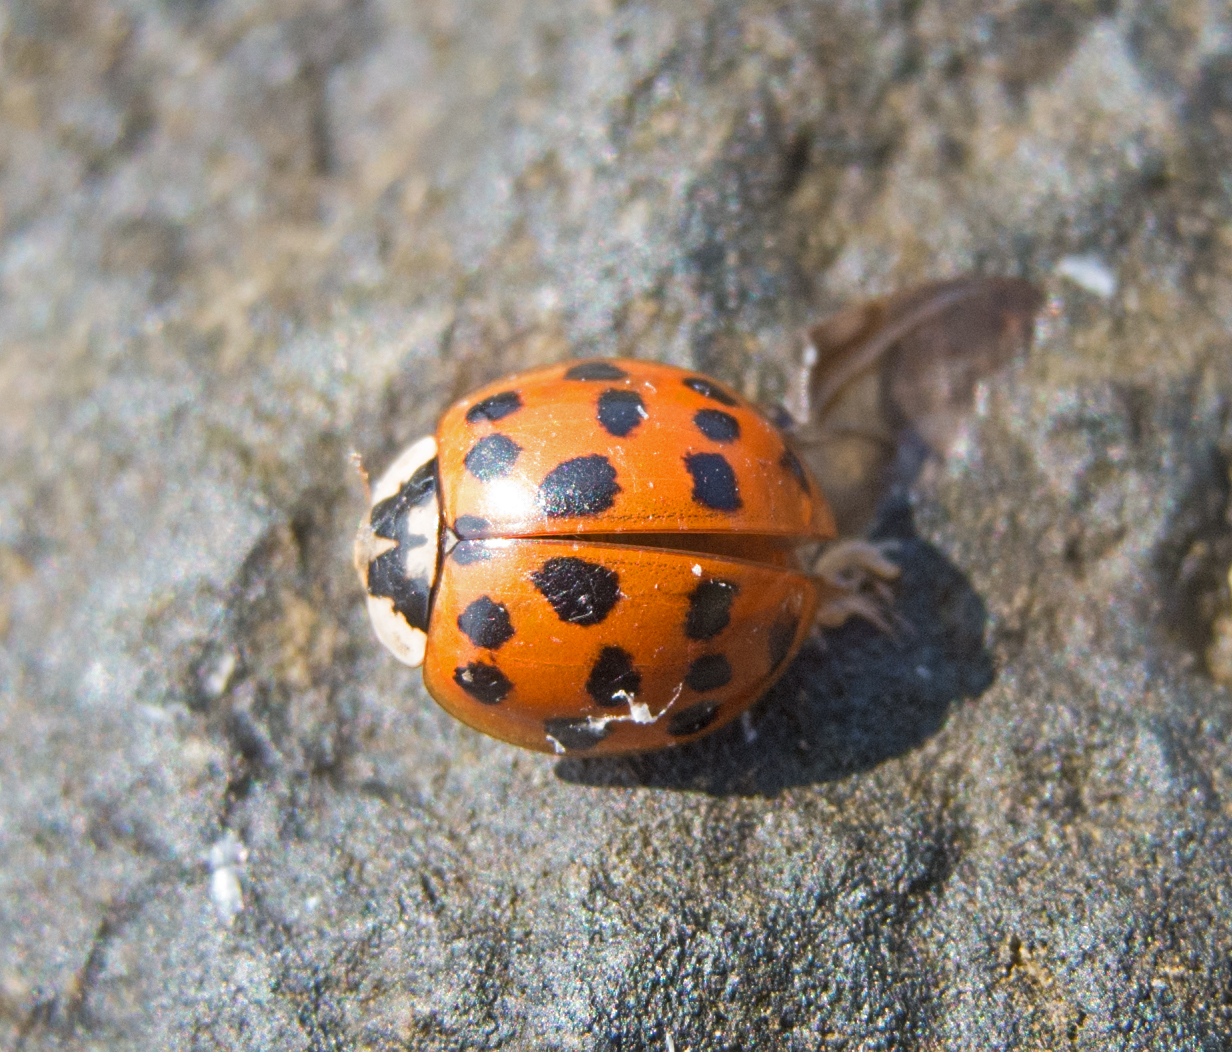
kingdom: Animalia
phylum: Arthropoda
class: Insecta
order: Coleoptera
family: Coccinellidae
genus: Harmonia
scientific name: Harmonia axyridis
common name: Harlequin ladybird
